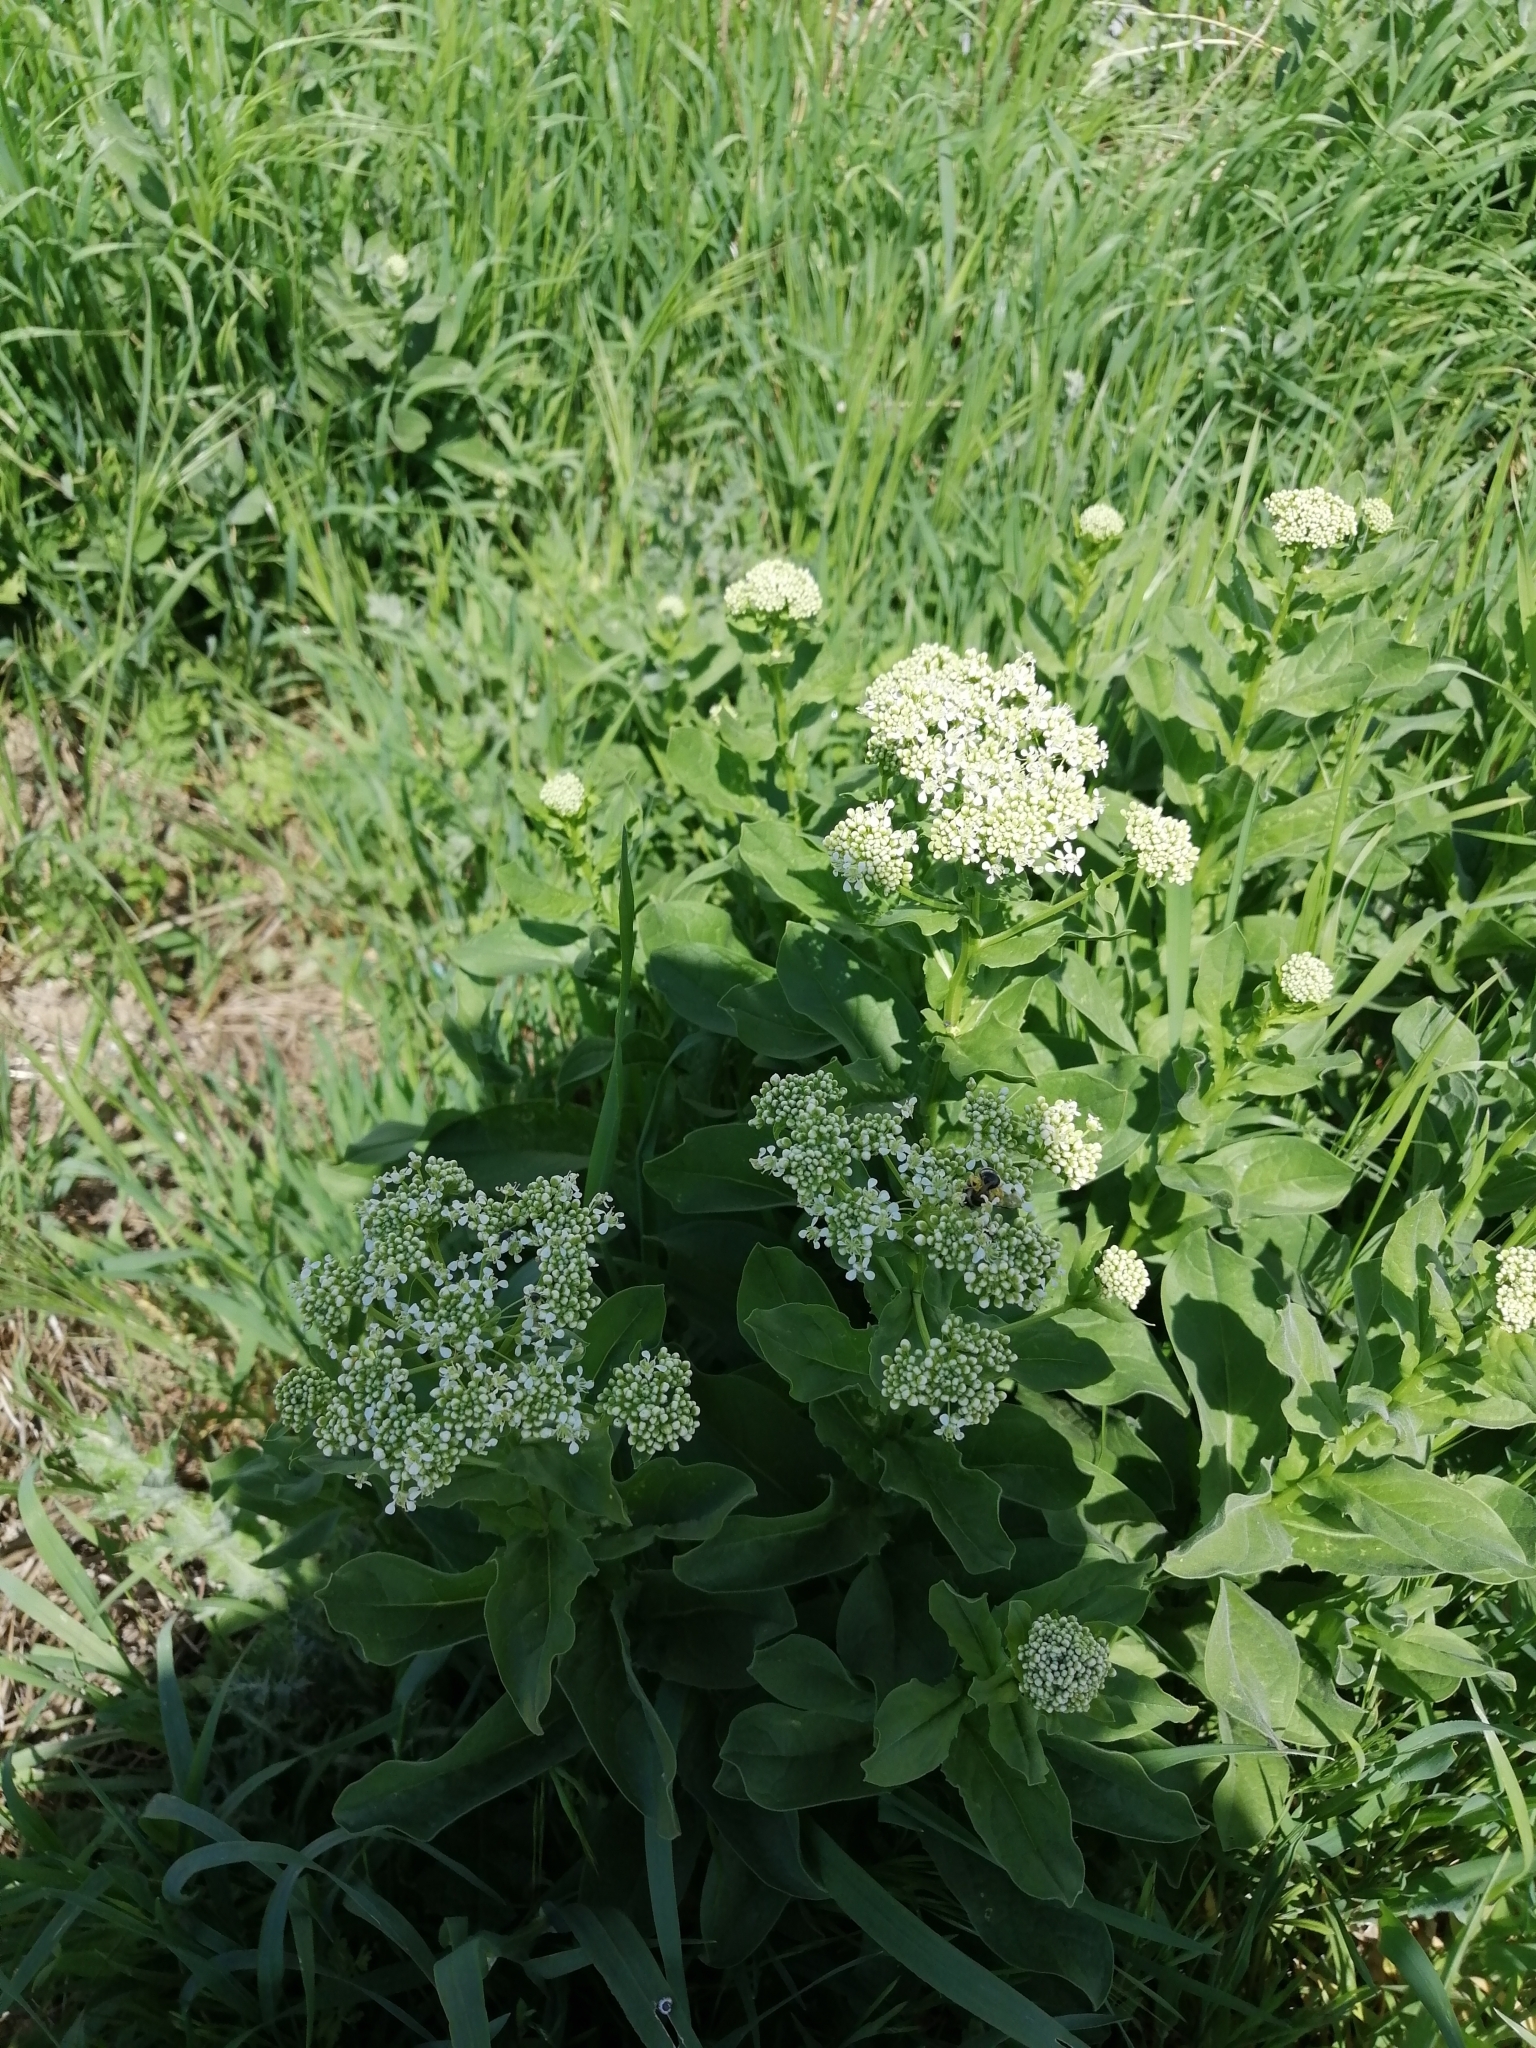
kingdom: Plantae
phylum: Tracheophyta
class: Magnoliopsida
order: Brassicales
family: Brassicaceae
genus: Lepidium
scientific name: Lepidium draba
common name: Hoary cress
